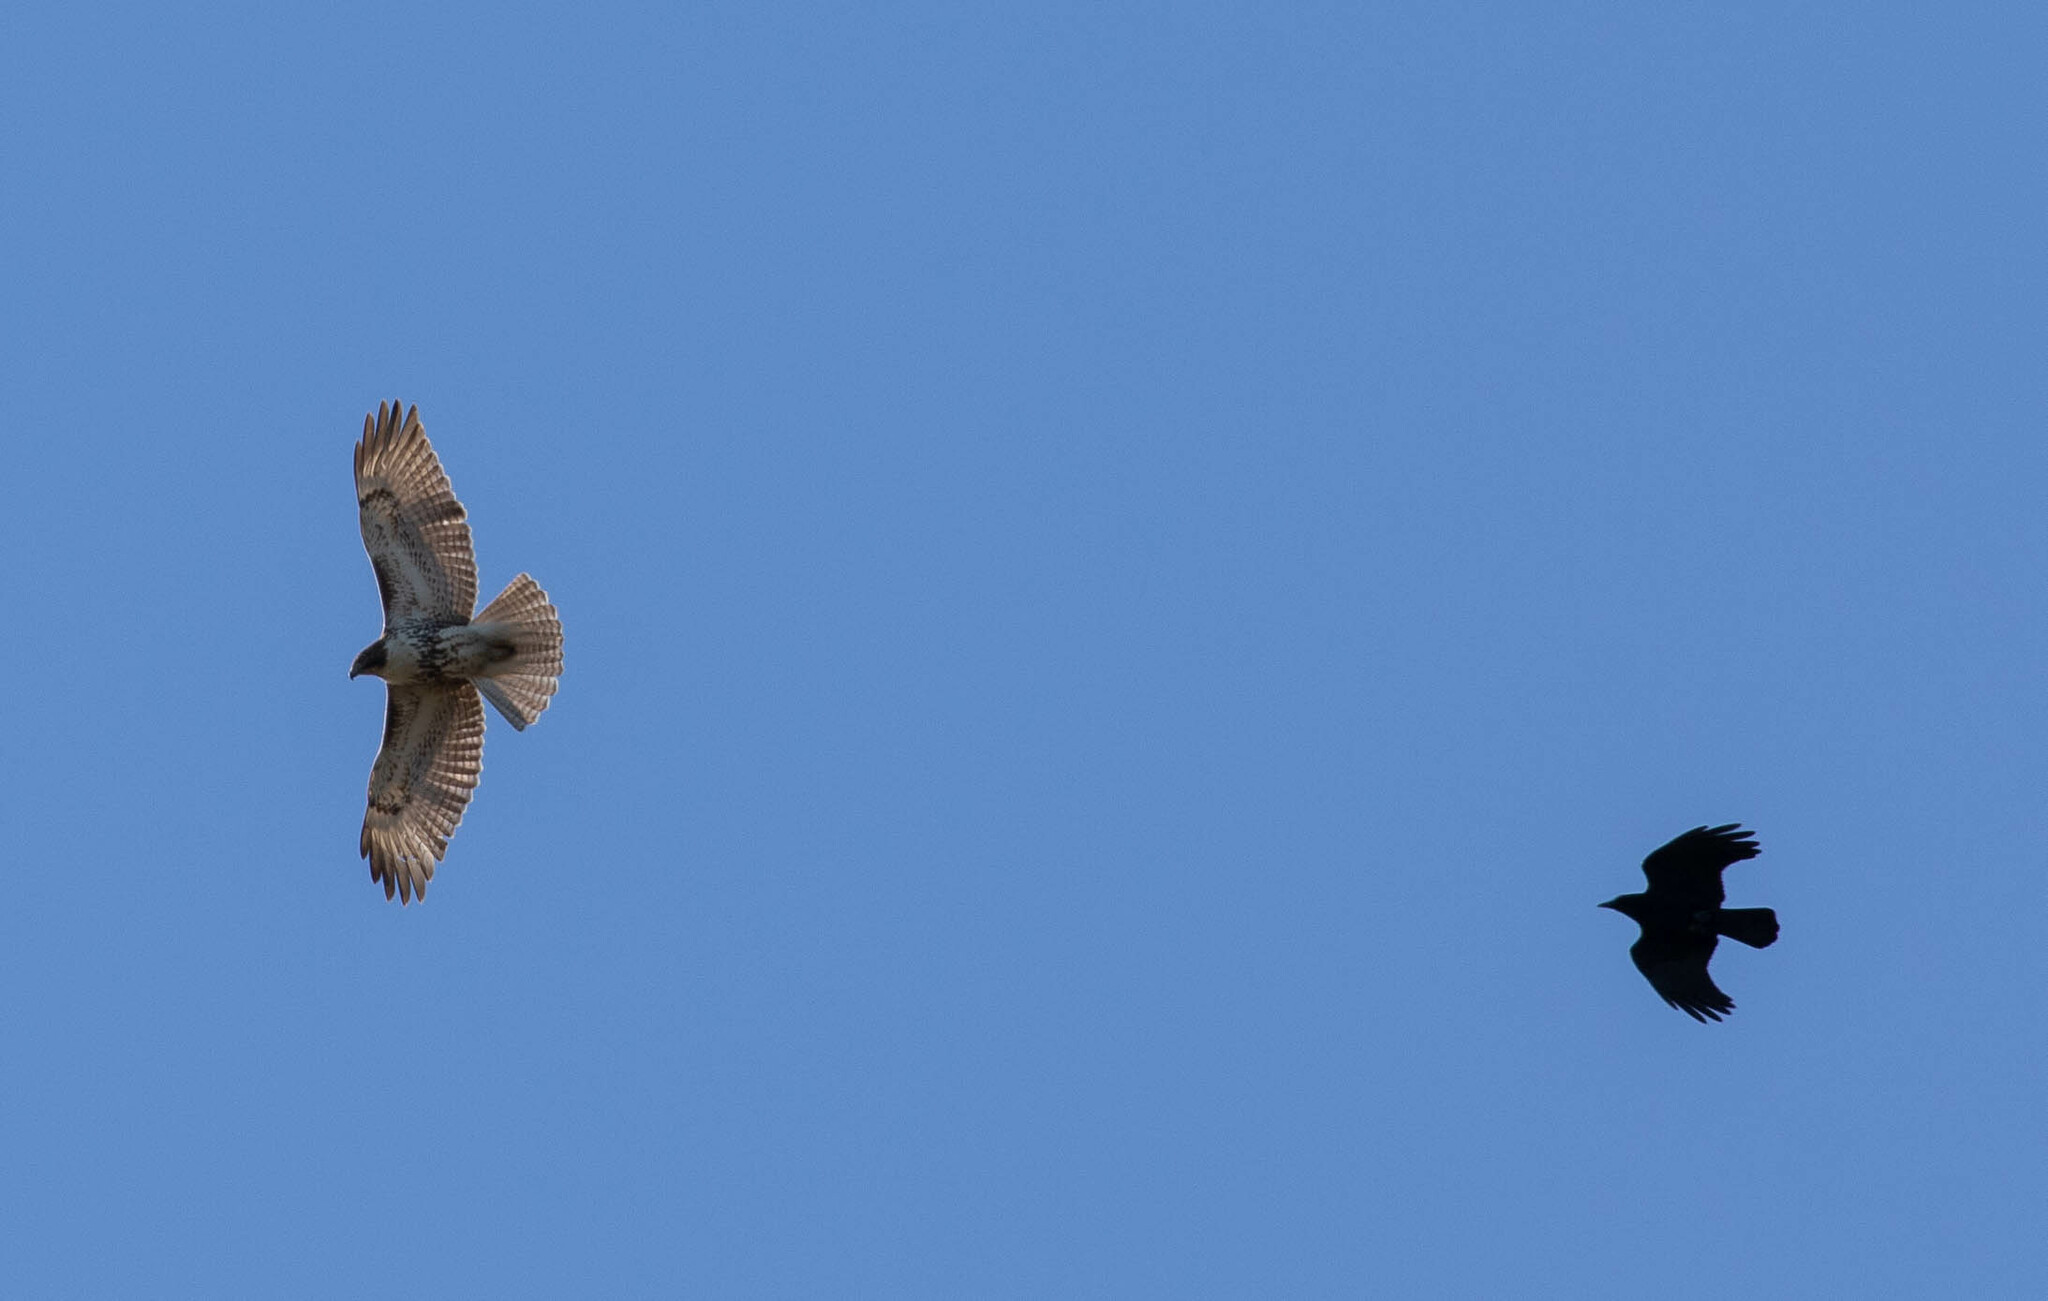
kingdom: Animalia
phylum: Chordata
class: Aves
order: Accipitriformes
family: Accipitridae
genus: Buteo
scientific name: Buteo jamaicensis
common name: Red-tailed hawk
